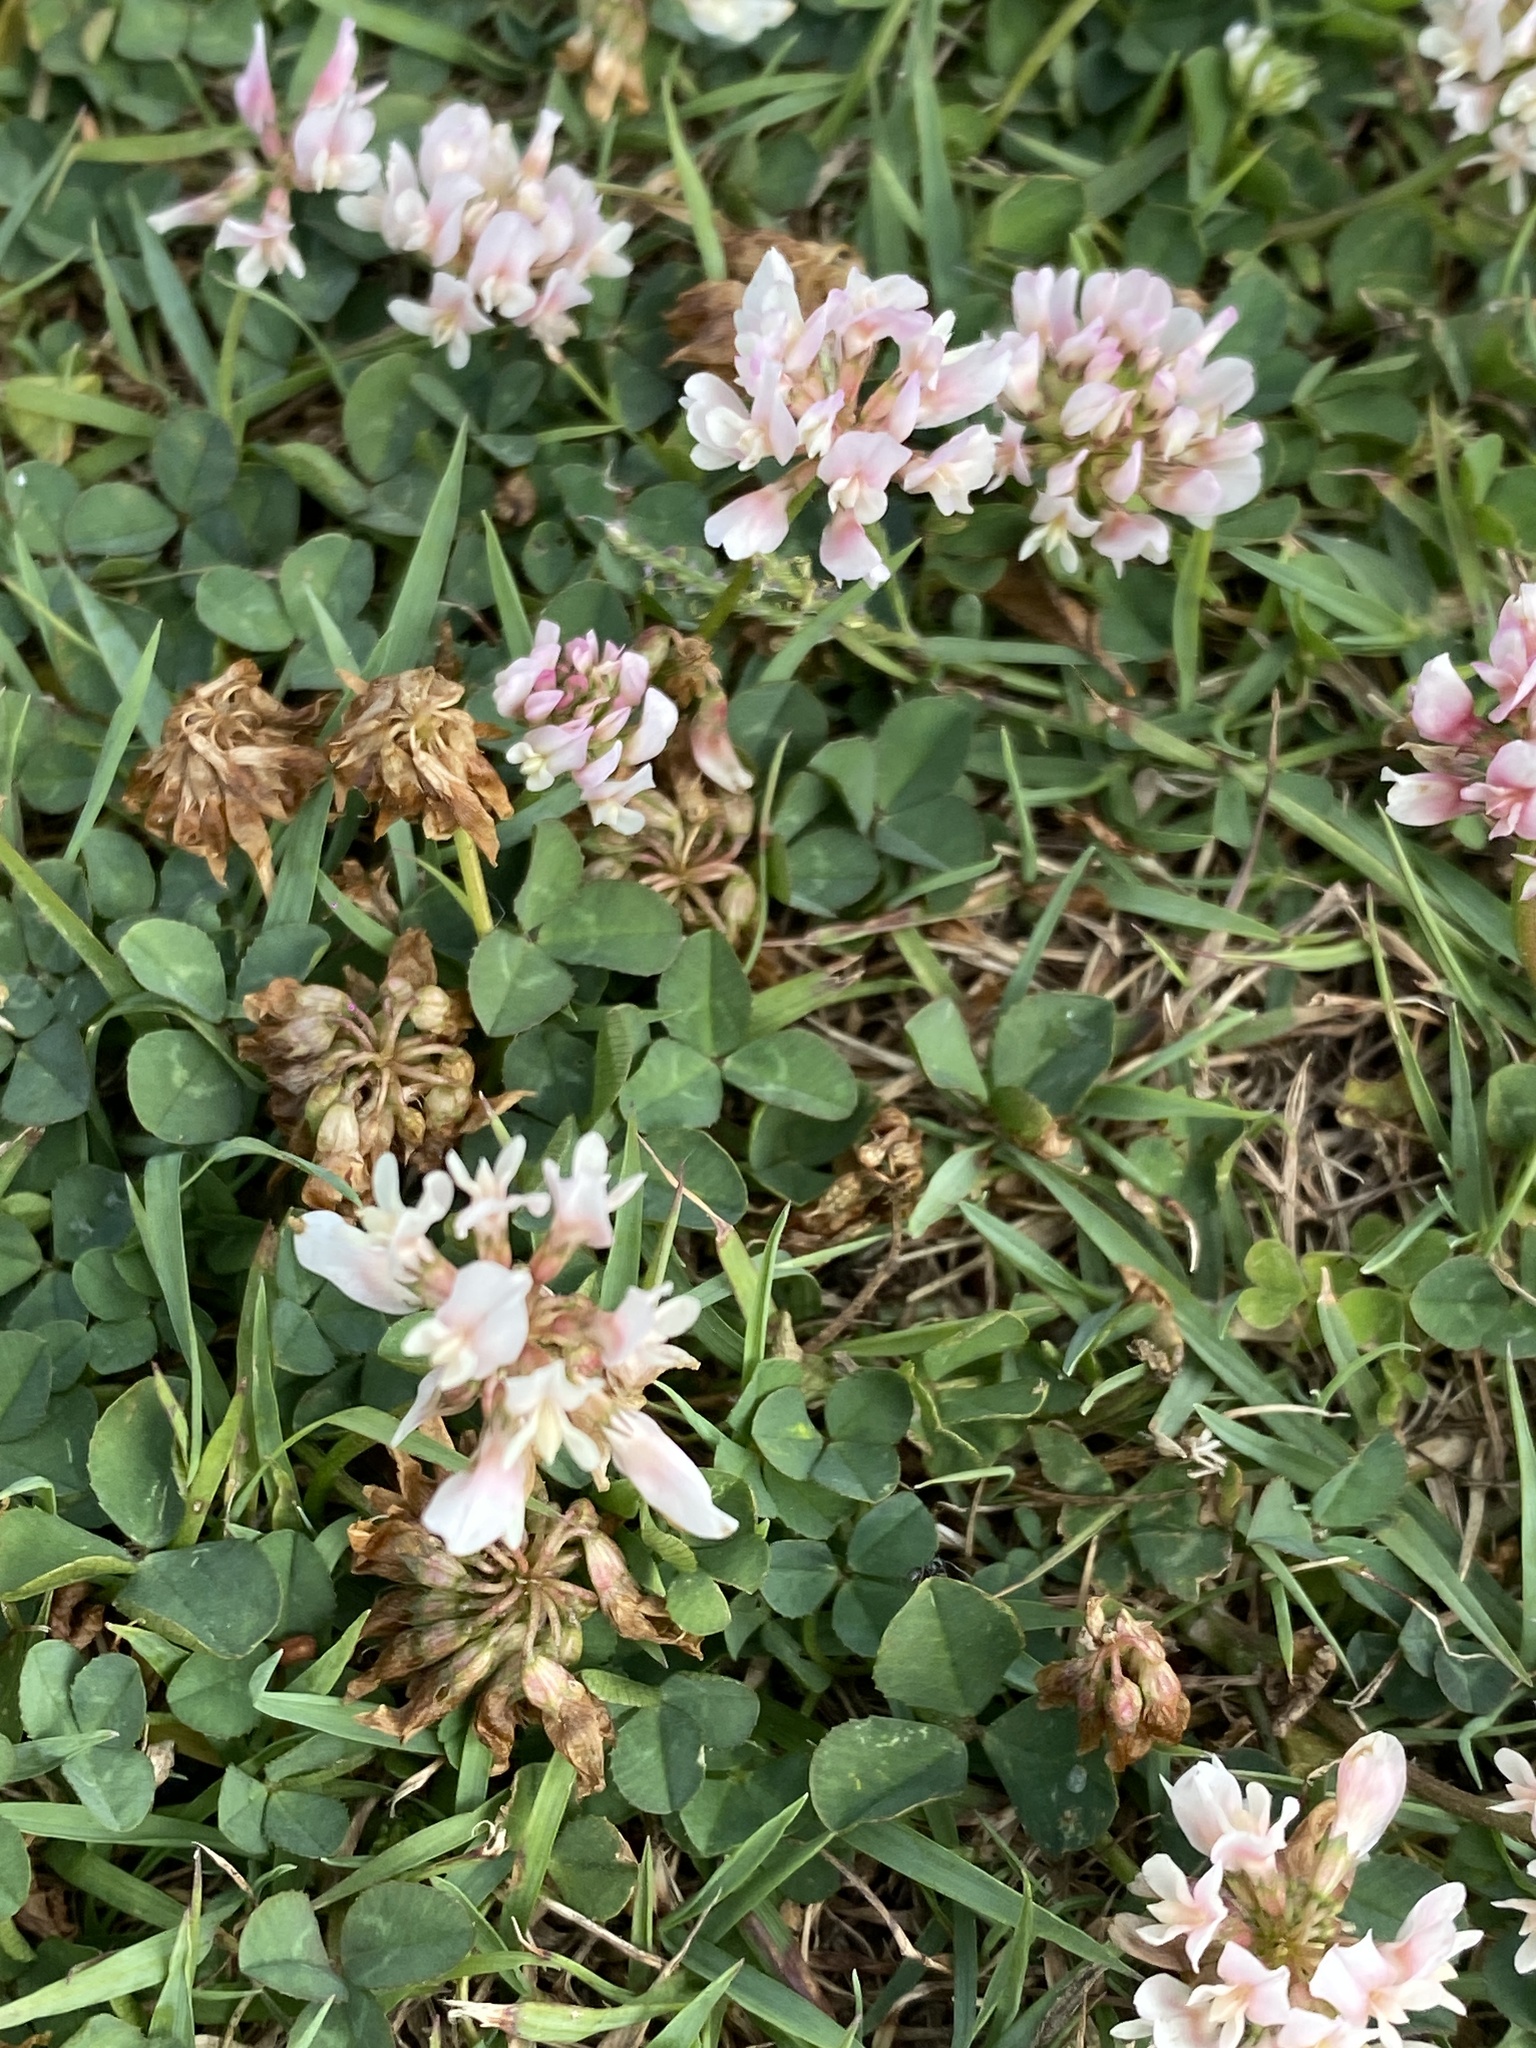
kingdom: Plantae
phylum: Tracheophyta
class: Magnoliopsida
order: Fabales
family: Fabaceae
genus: Trifolium
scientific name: Trifolium repens
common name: White clover
